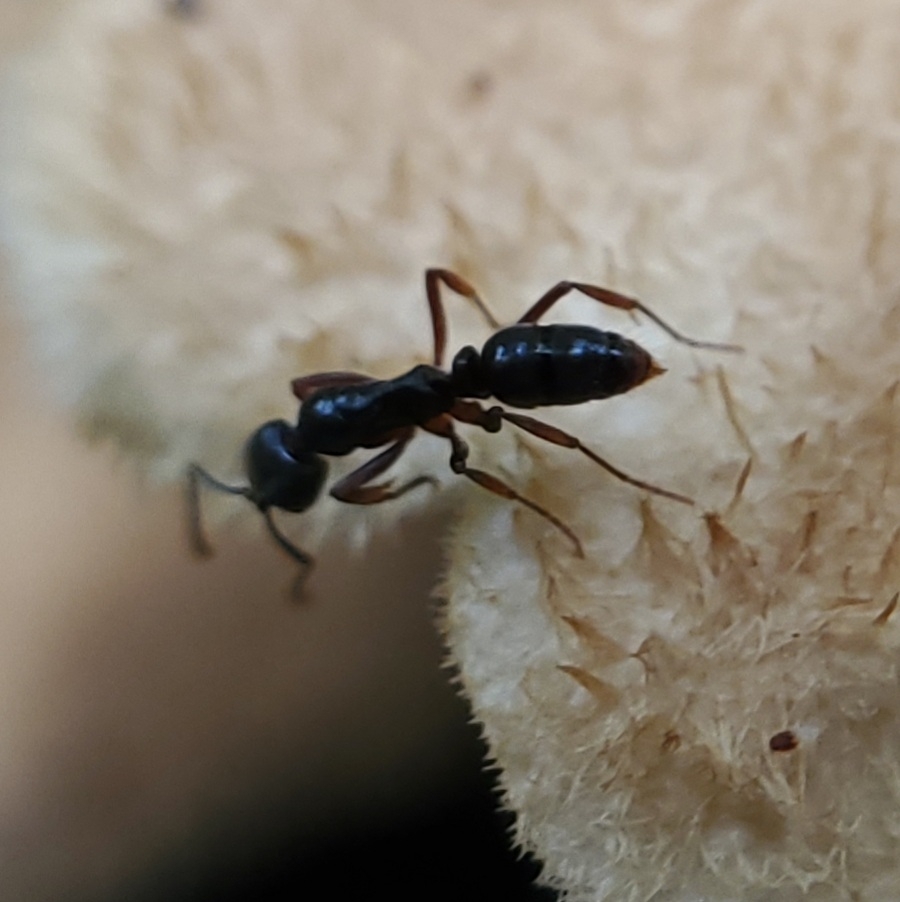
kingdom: Animalia
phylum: Arthropoda
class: Insecta
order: Hymenoptera
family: Formicidae
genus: Pachycondyla
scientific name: Pachycondyla chinensis
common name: Asian needle ant
